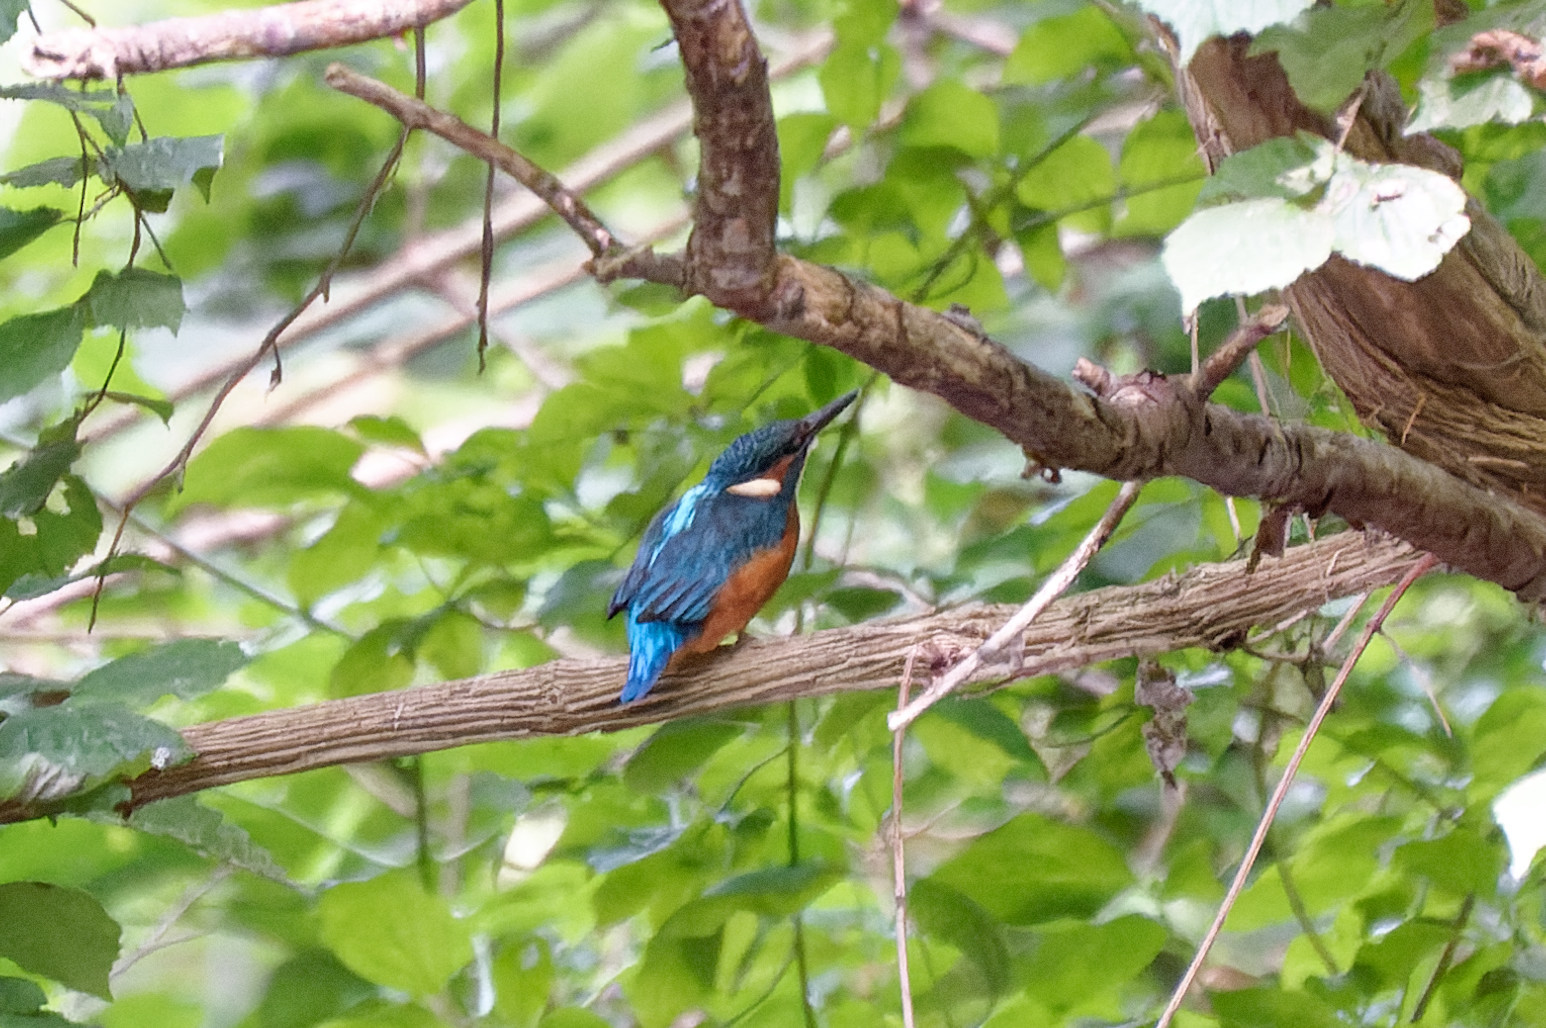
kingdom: Animalia
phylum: Chordata
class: Aves
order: Coraciiformes
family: Alcedinidae
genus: Alcedo
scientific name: Alcedo atthis
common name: Common kingfisher
